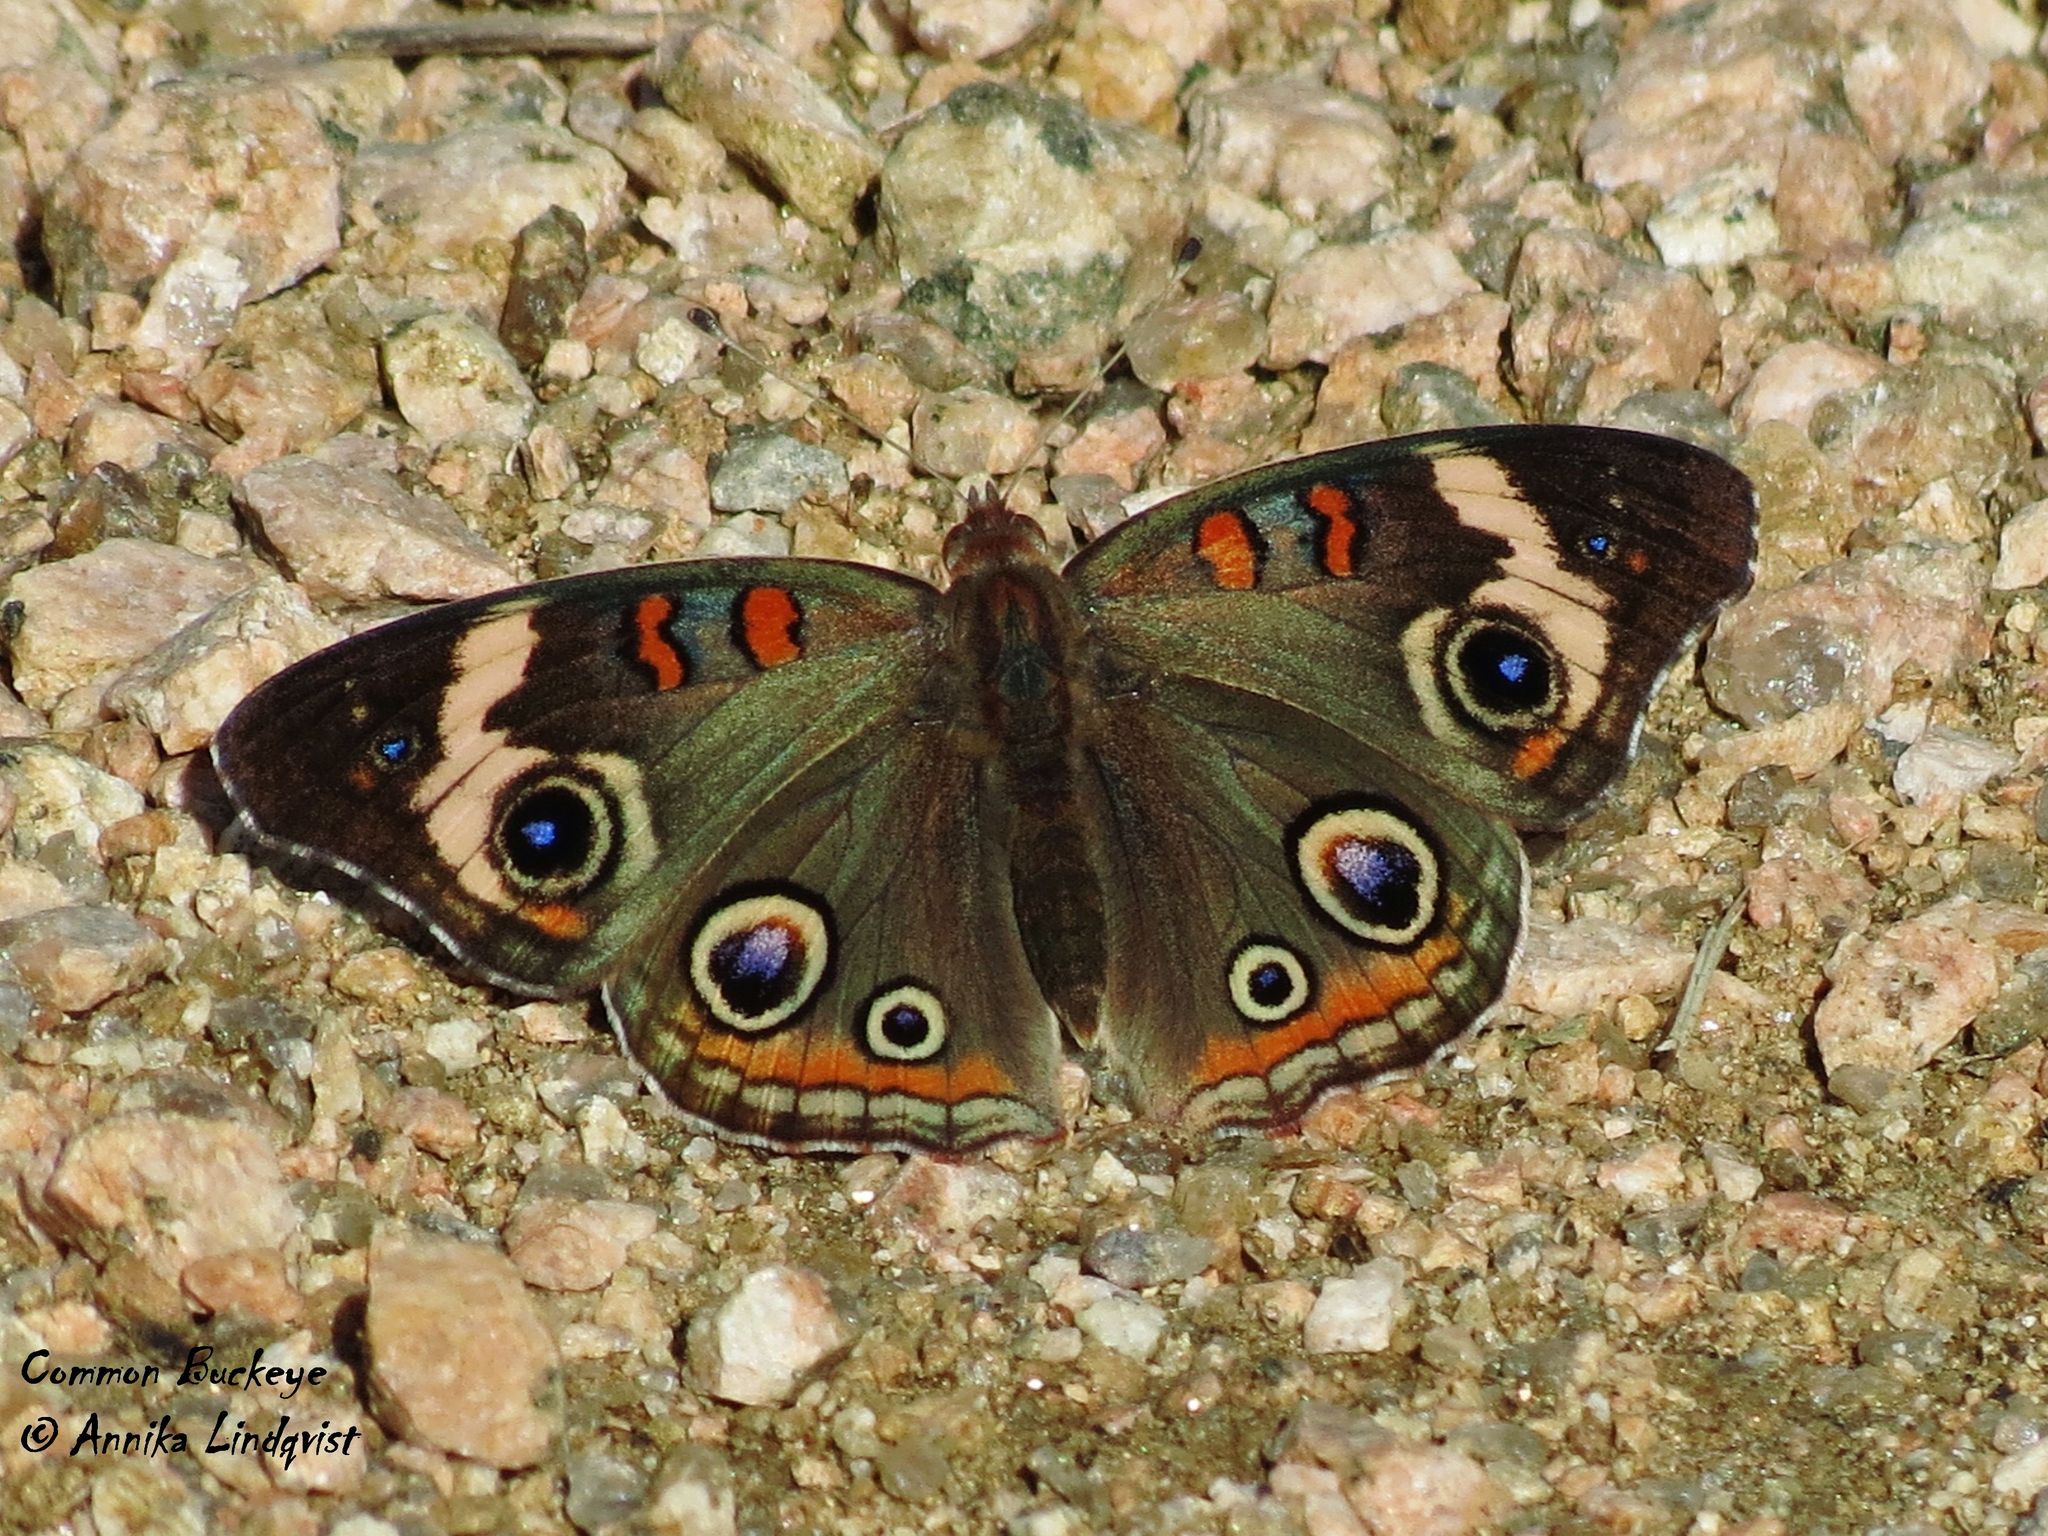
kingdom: Animalia
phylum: Arthropoda
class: Insecta
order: Lepidoptera
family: Nymphalidae
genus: Junonia
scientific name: Junonia coenia
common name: Common buckeye
